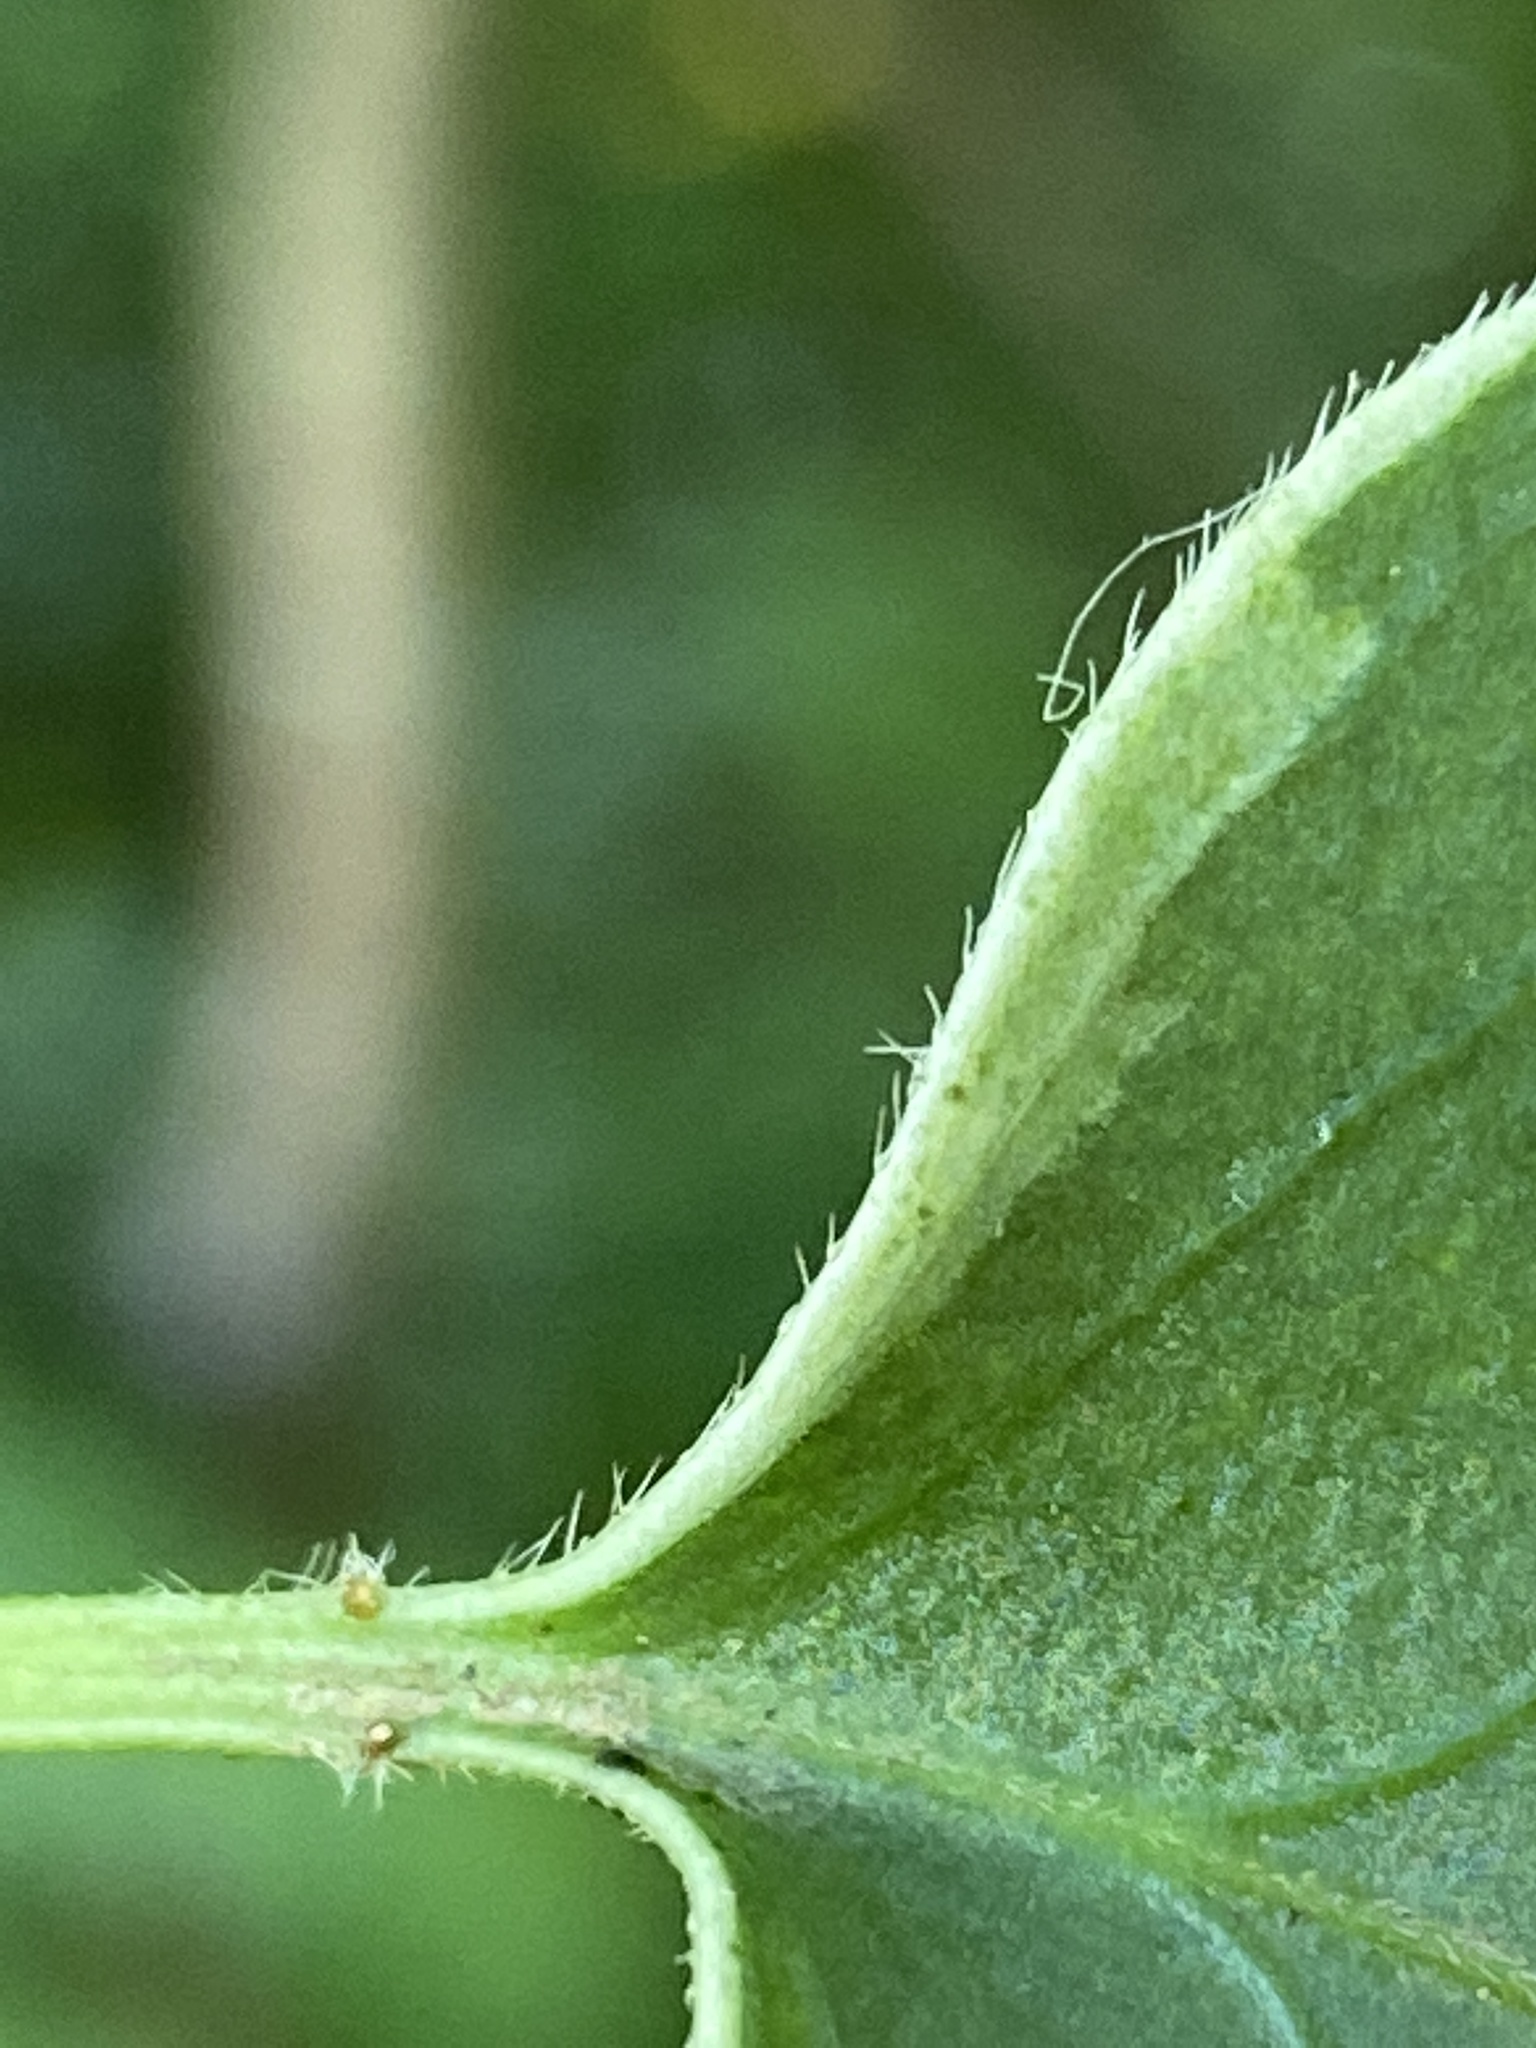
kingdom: Plantae
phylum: Tracheophyta
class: Magnoliopsida
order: Gentianales
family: Apocynaceae
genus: Vinca
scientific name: Vinca major
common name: Greater periwinkle
